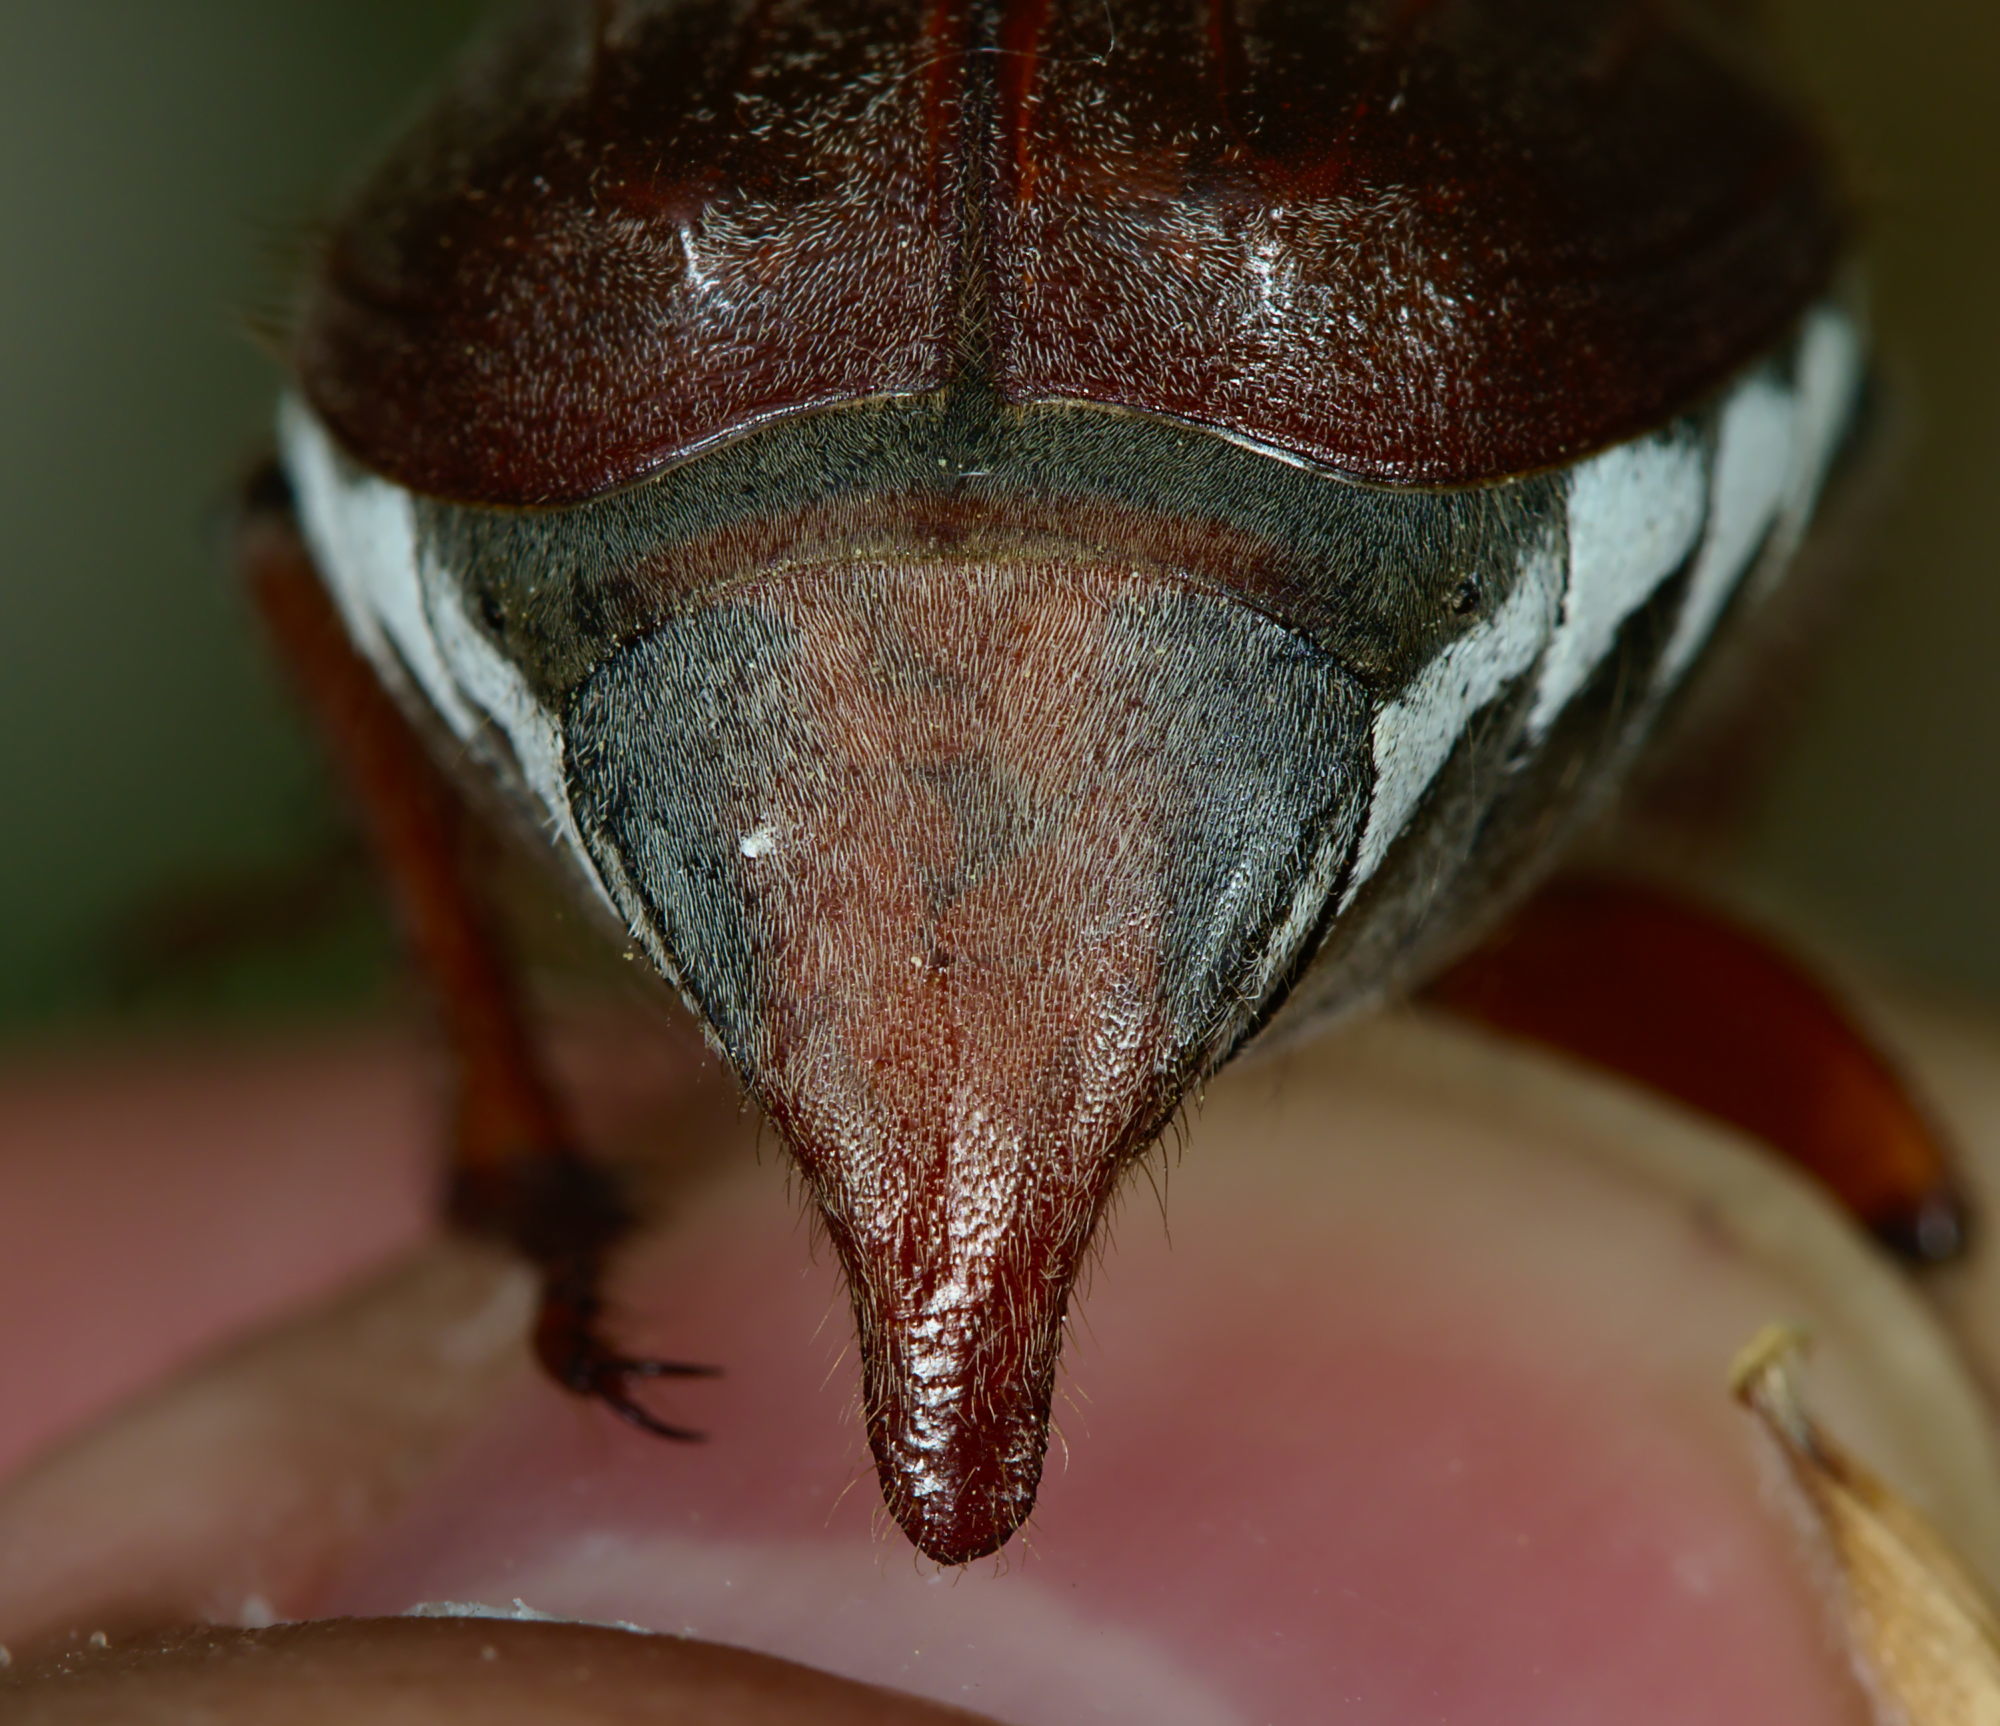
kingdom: Animalia
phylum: Arthropoda
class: Insecta
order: Coleoptera
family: Scarabaeidae
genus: Melolontha
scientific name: Melolontha melolontha
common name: Cockchafer maybeetle
